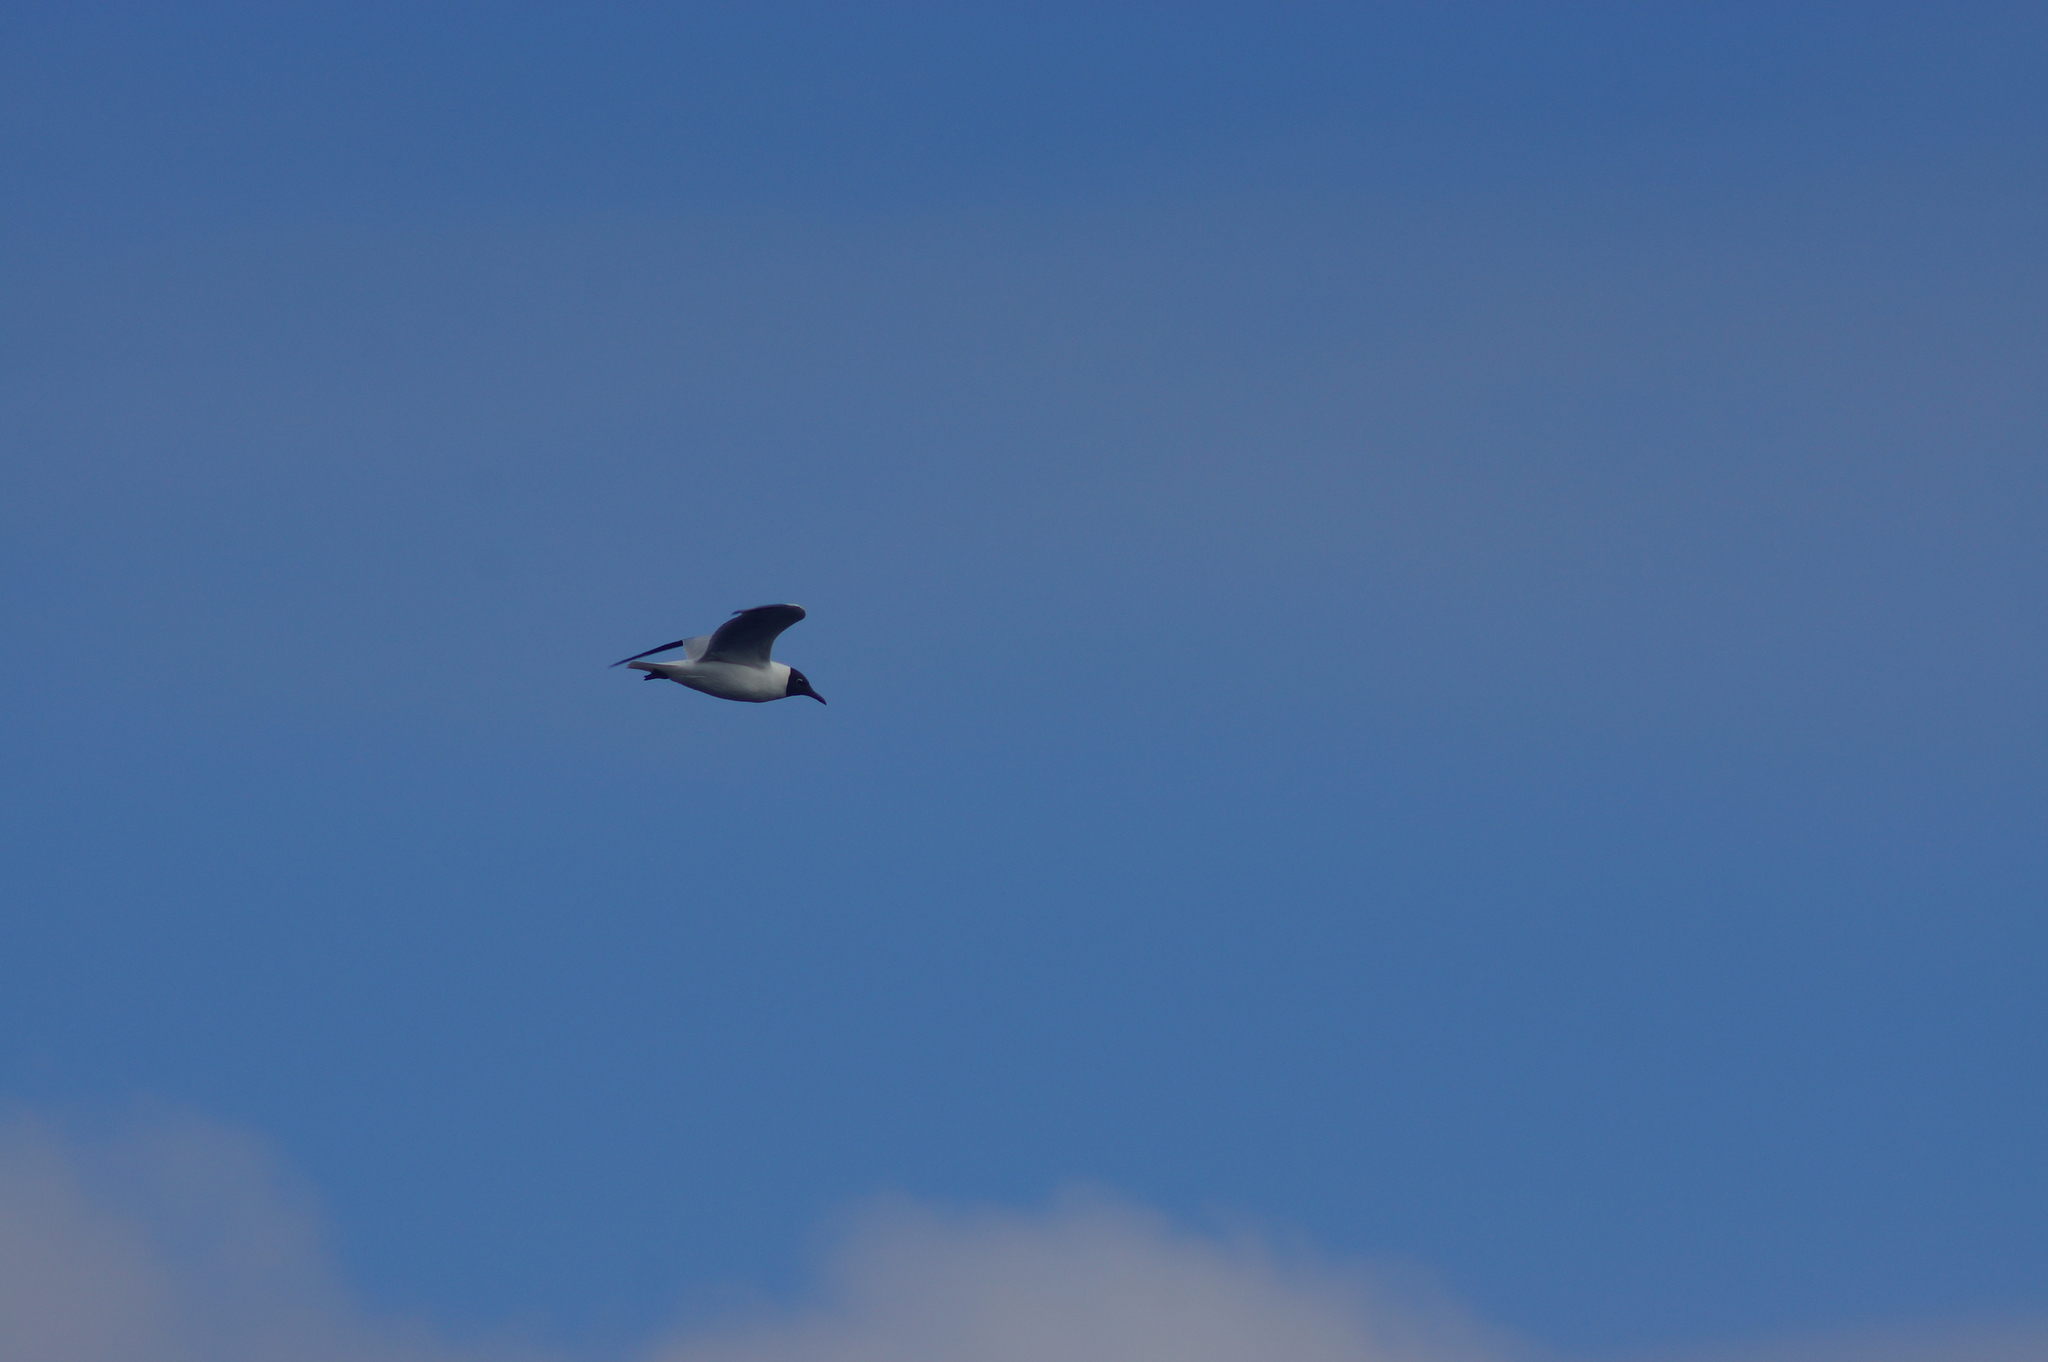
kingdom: Animalia
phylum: Chordata
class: Aves
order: Charadriiformes
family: Laridae
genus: Chroicocephalus
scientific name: Chroicocephalus ridibundus
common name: Black-headed gull
